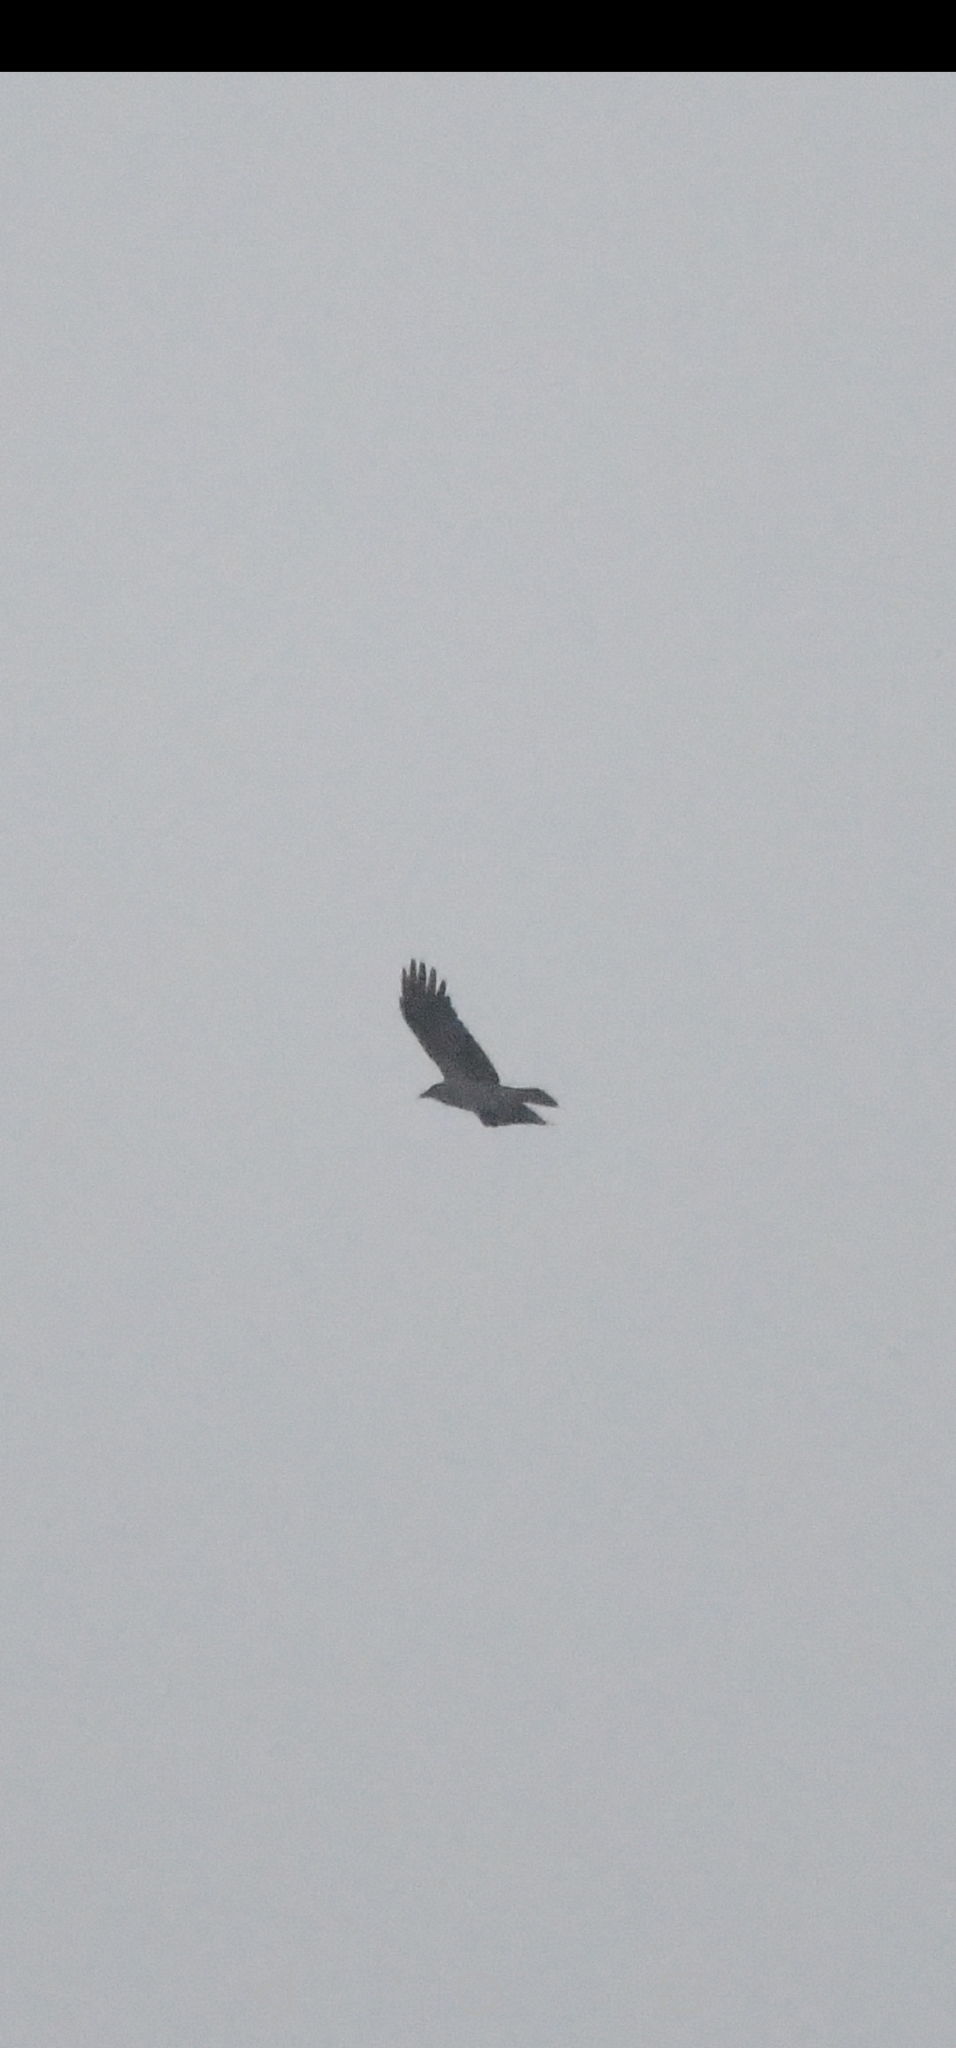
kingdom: Animalia
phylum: Chordata
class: Aves
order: Passeriformes
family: Corvidae
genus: Corvus
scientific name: Corvus cornix
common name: Hooded crow
